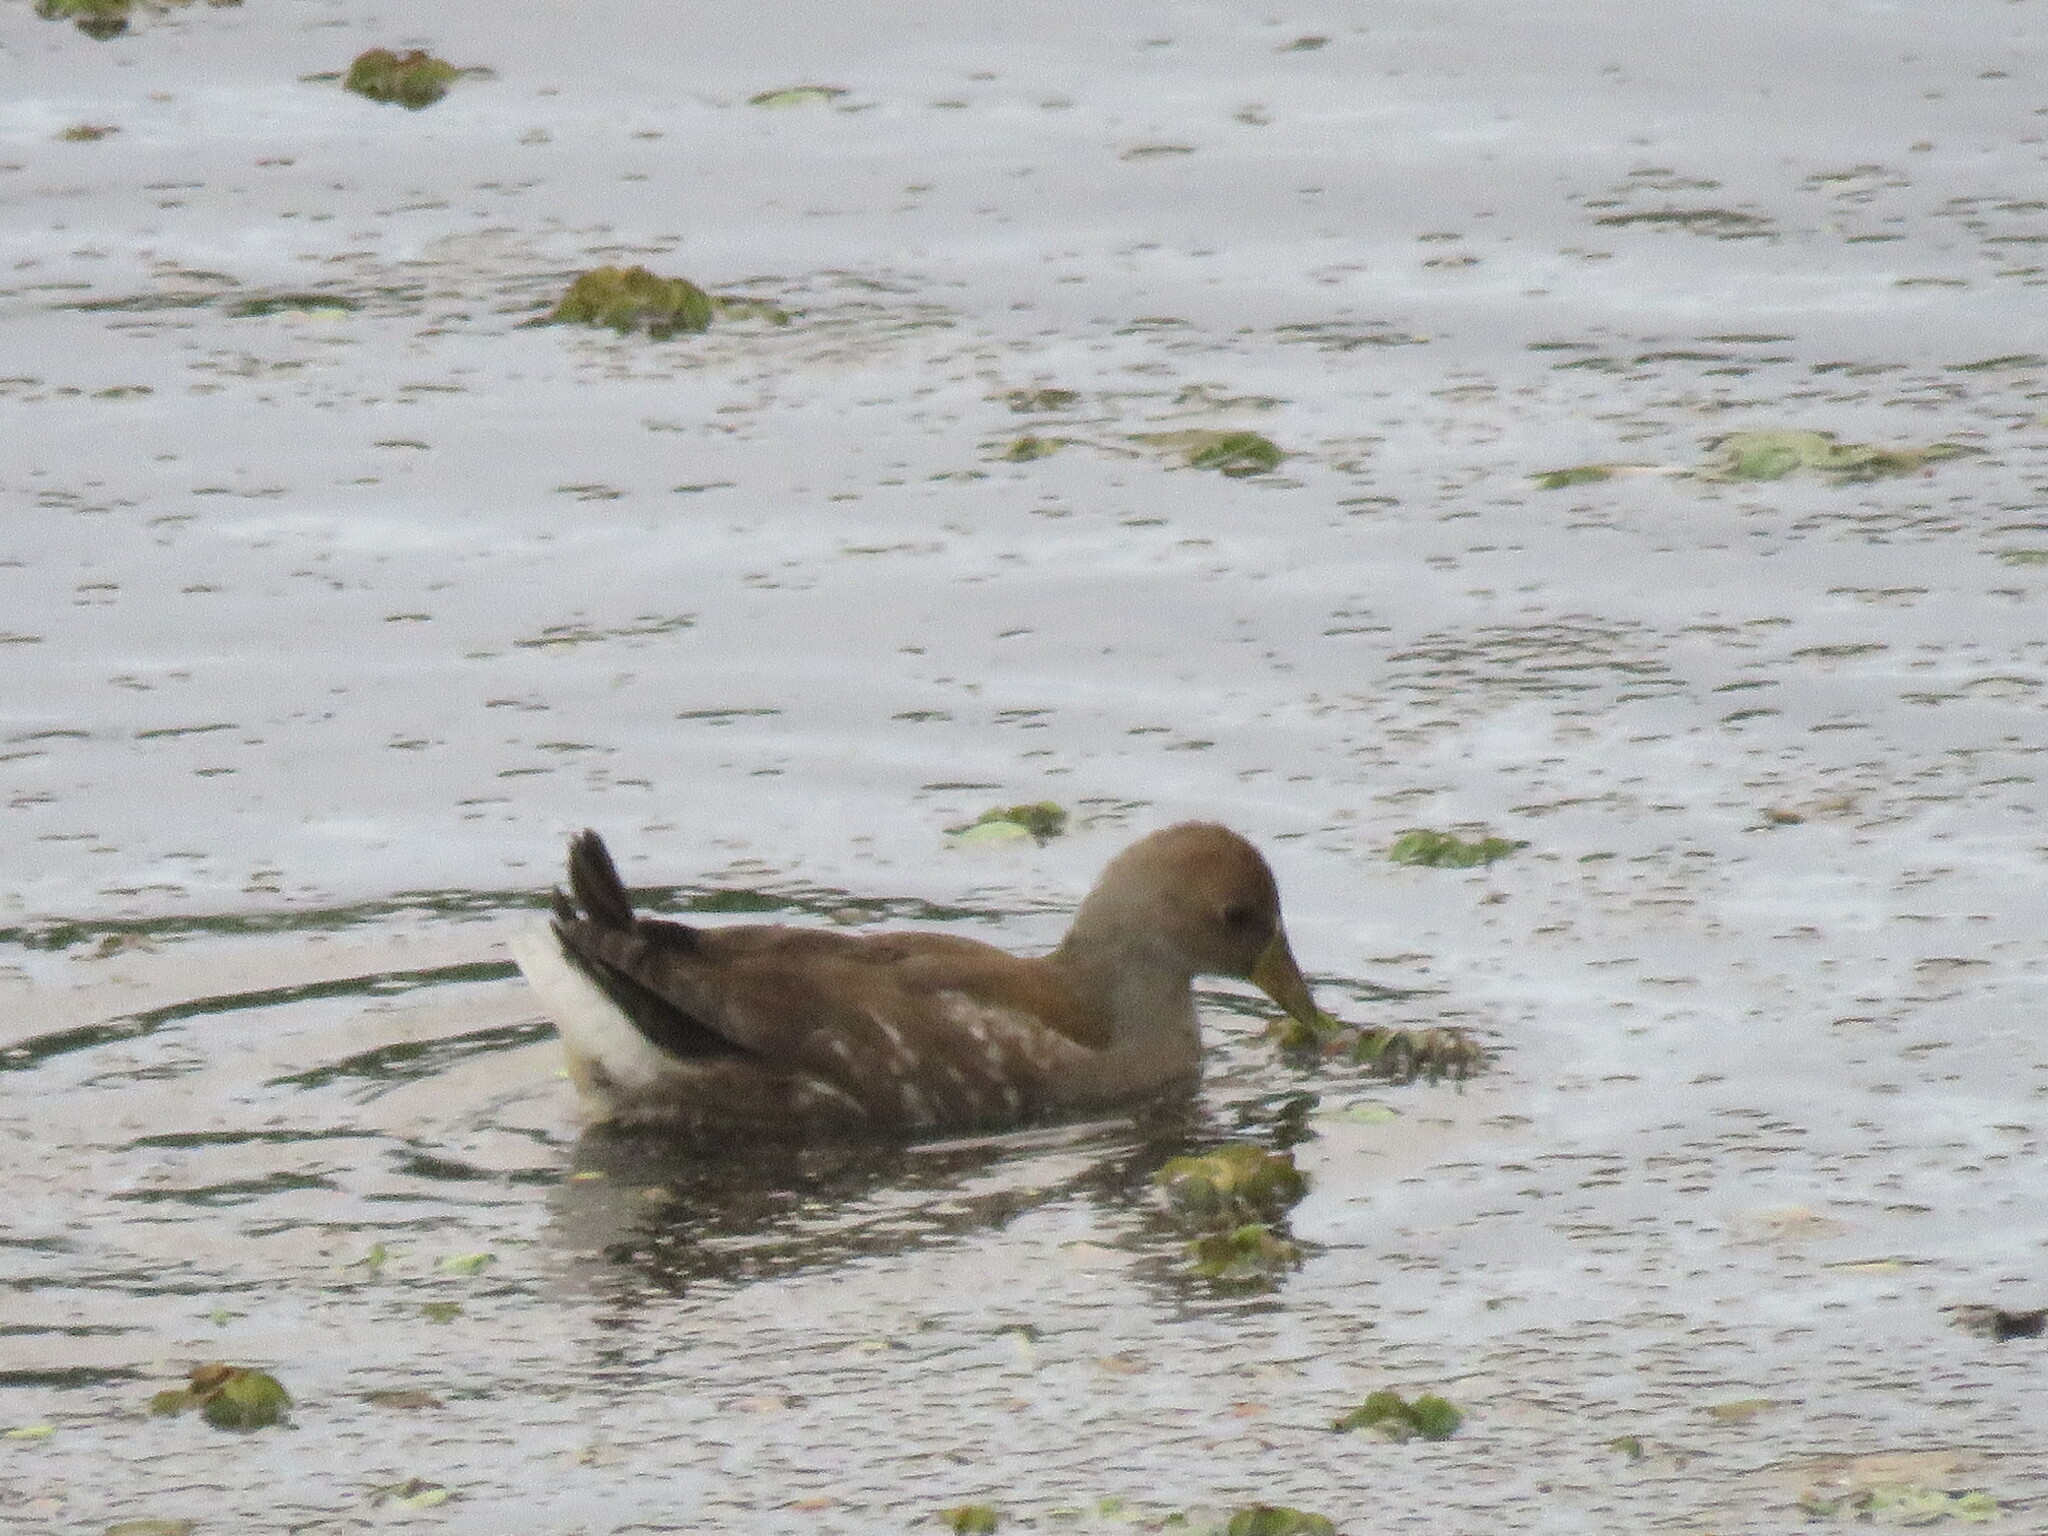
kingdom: Animalia
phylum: Chordata
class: Aves
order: Gruiformes
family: Rallidae
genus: Gallinula
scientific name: Gallinula melanops
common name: Spot-flanked gallinule
